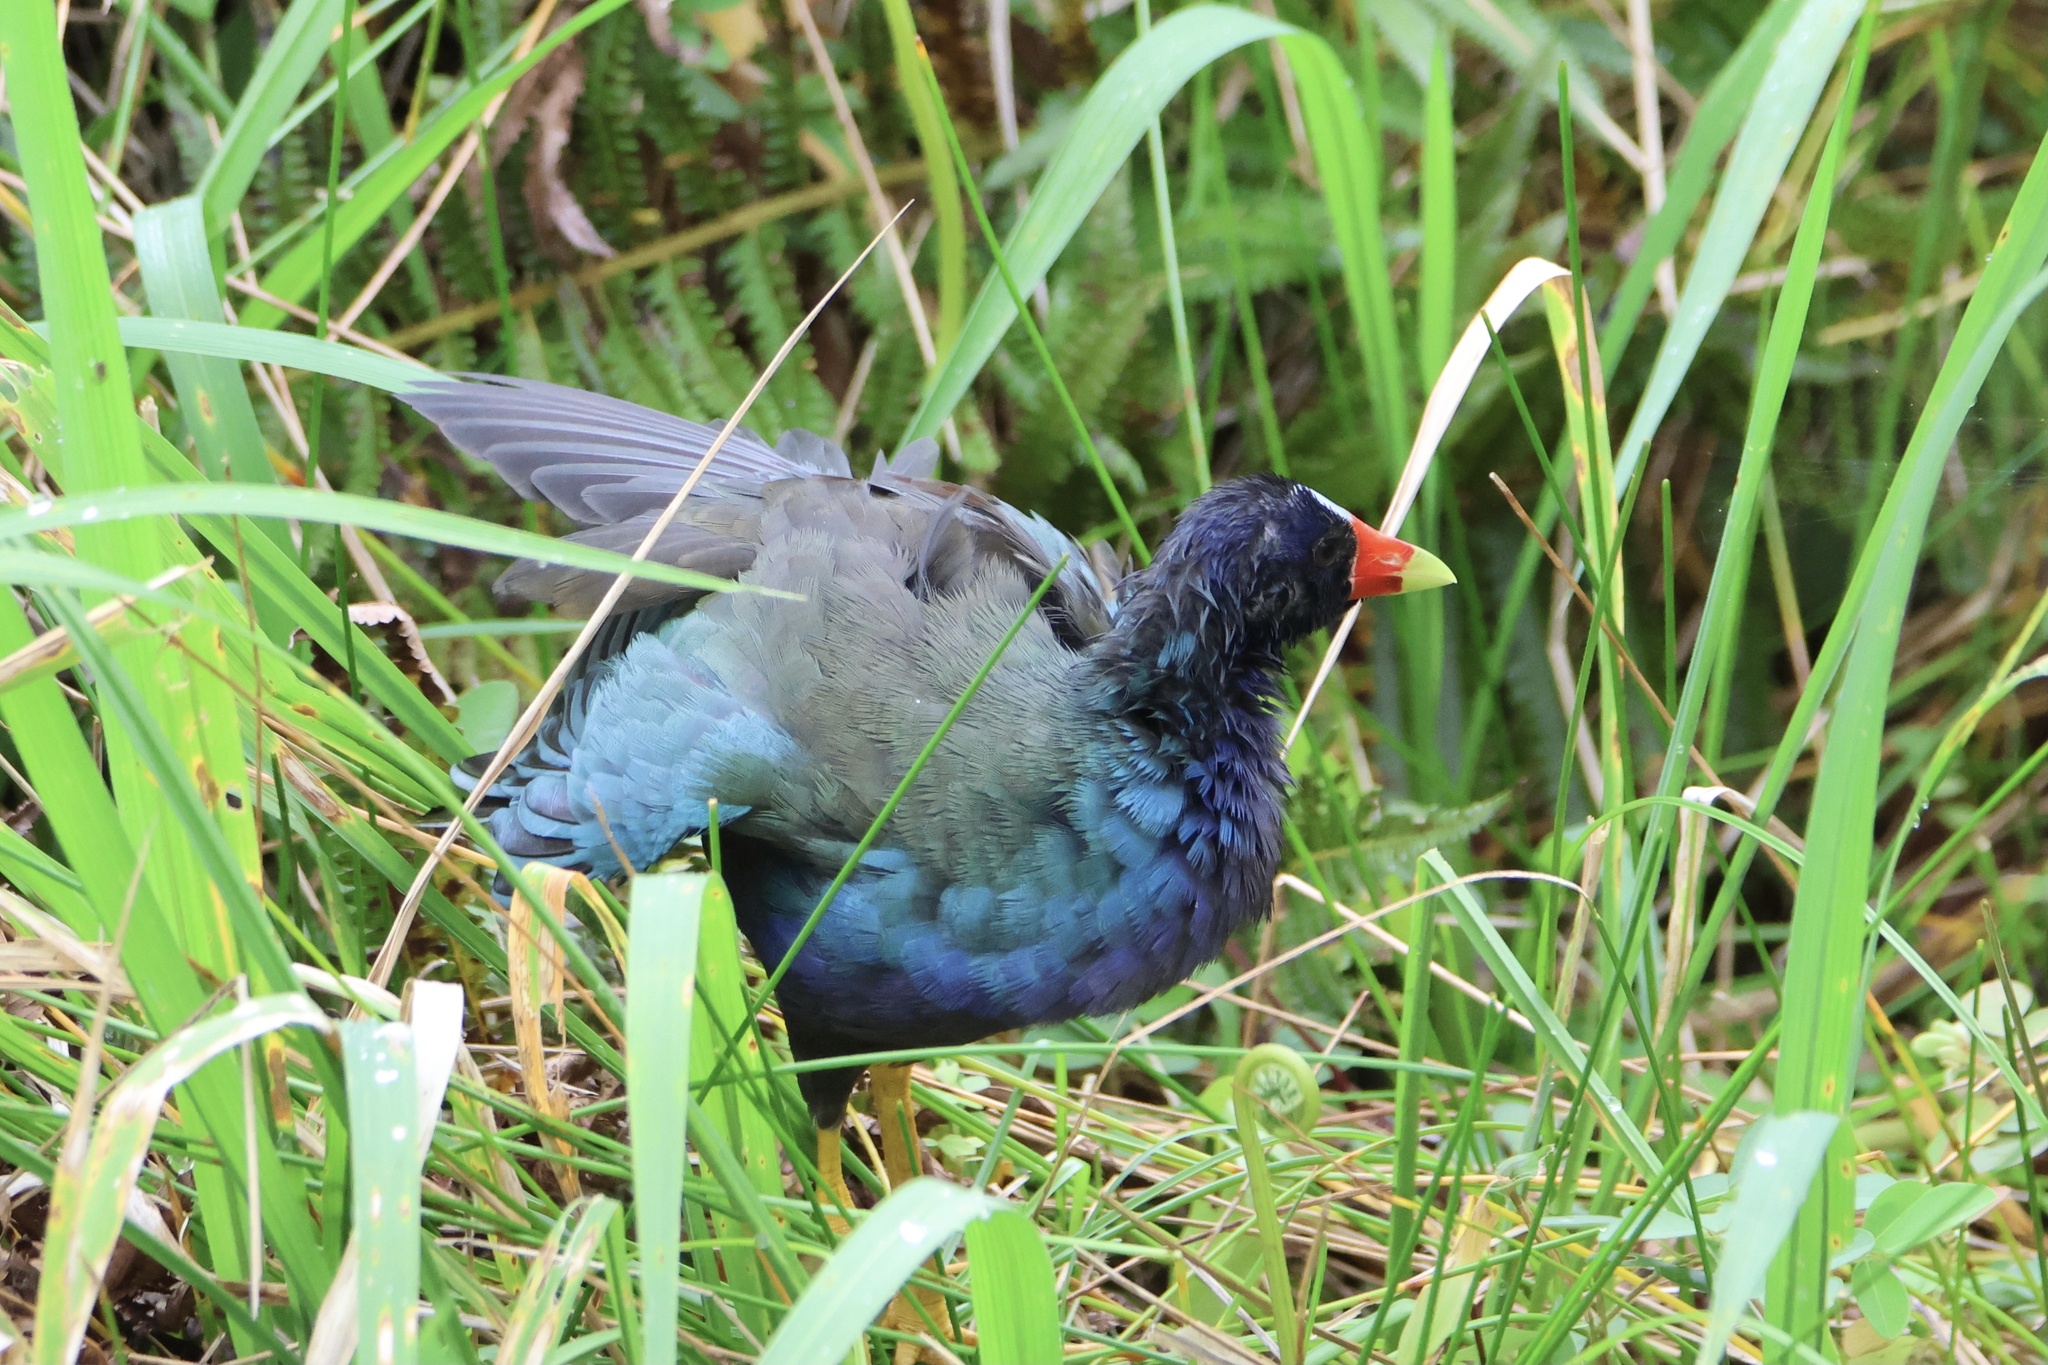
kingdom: Animalia
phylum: Chordata
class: Aves
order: Gruiformes
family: Rallidae
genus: Porphyrio
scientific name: Porphyrio martinica
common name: Purple gallinule
